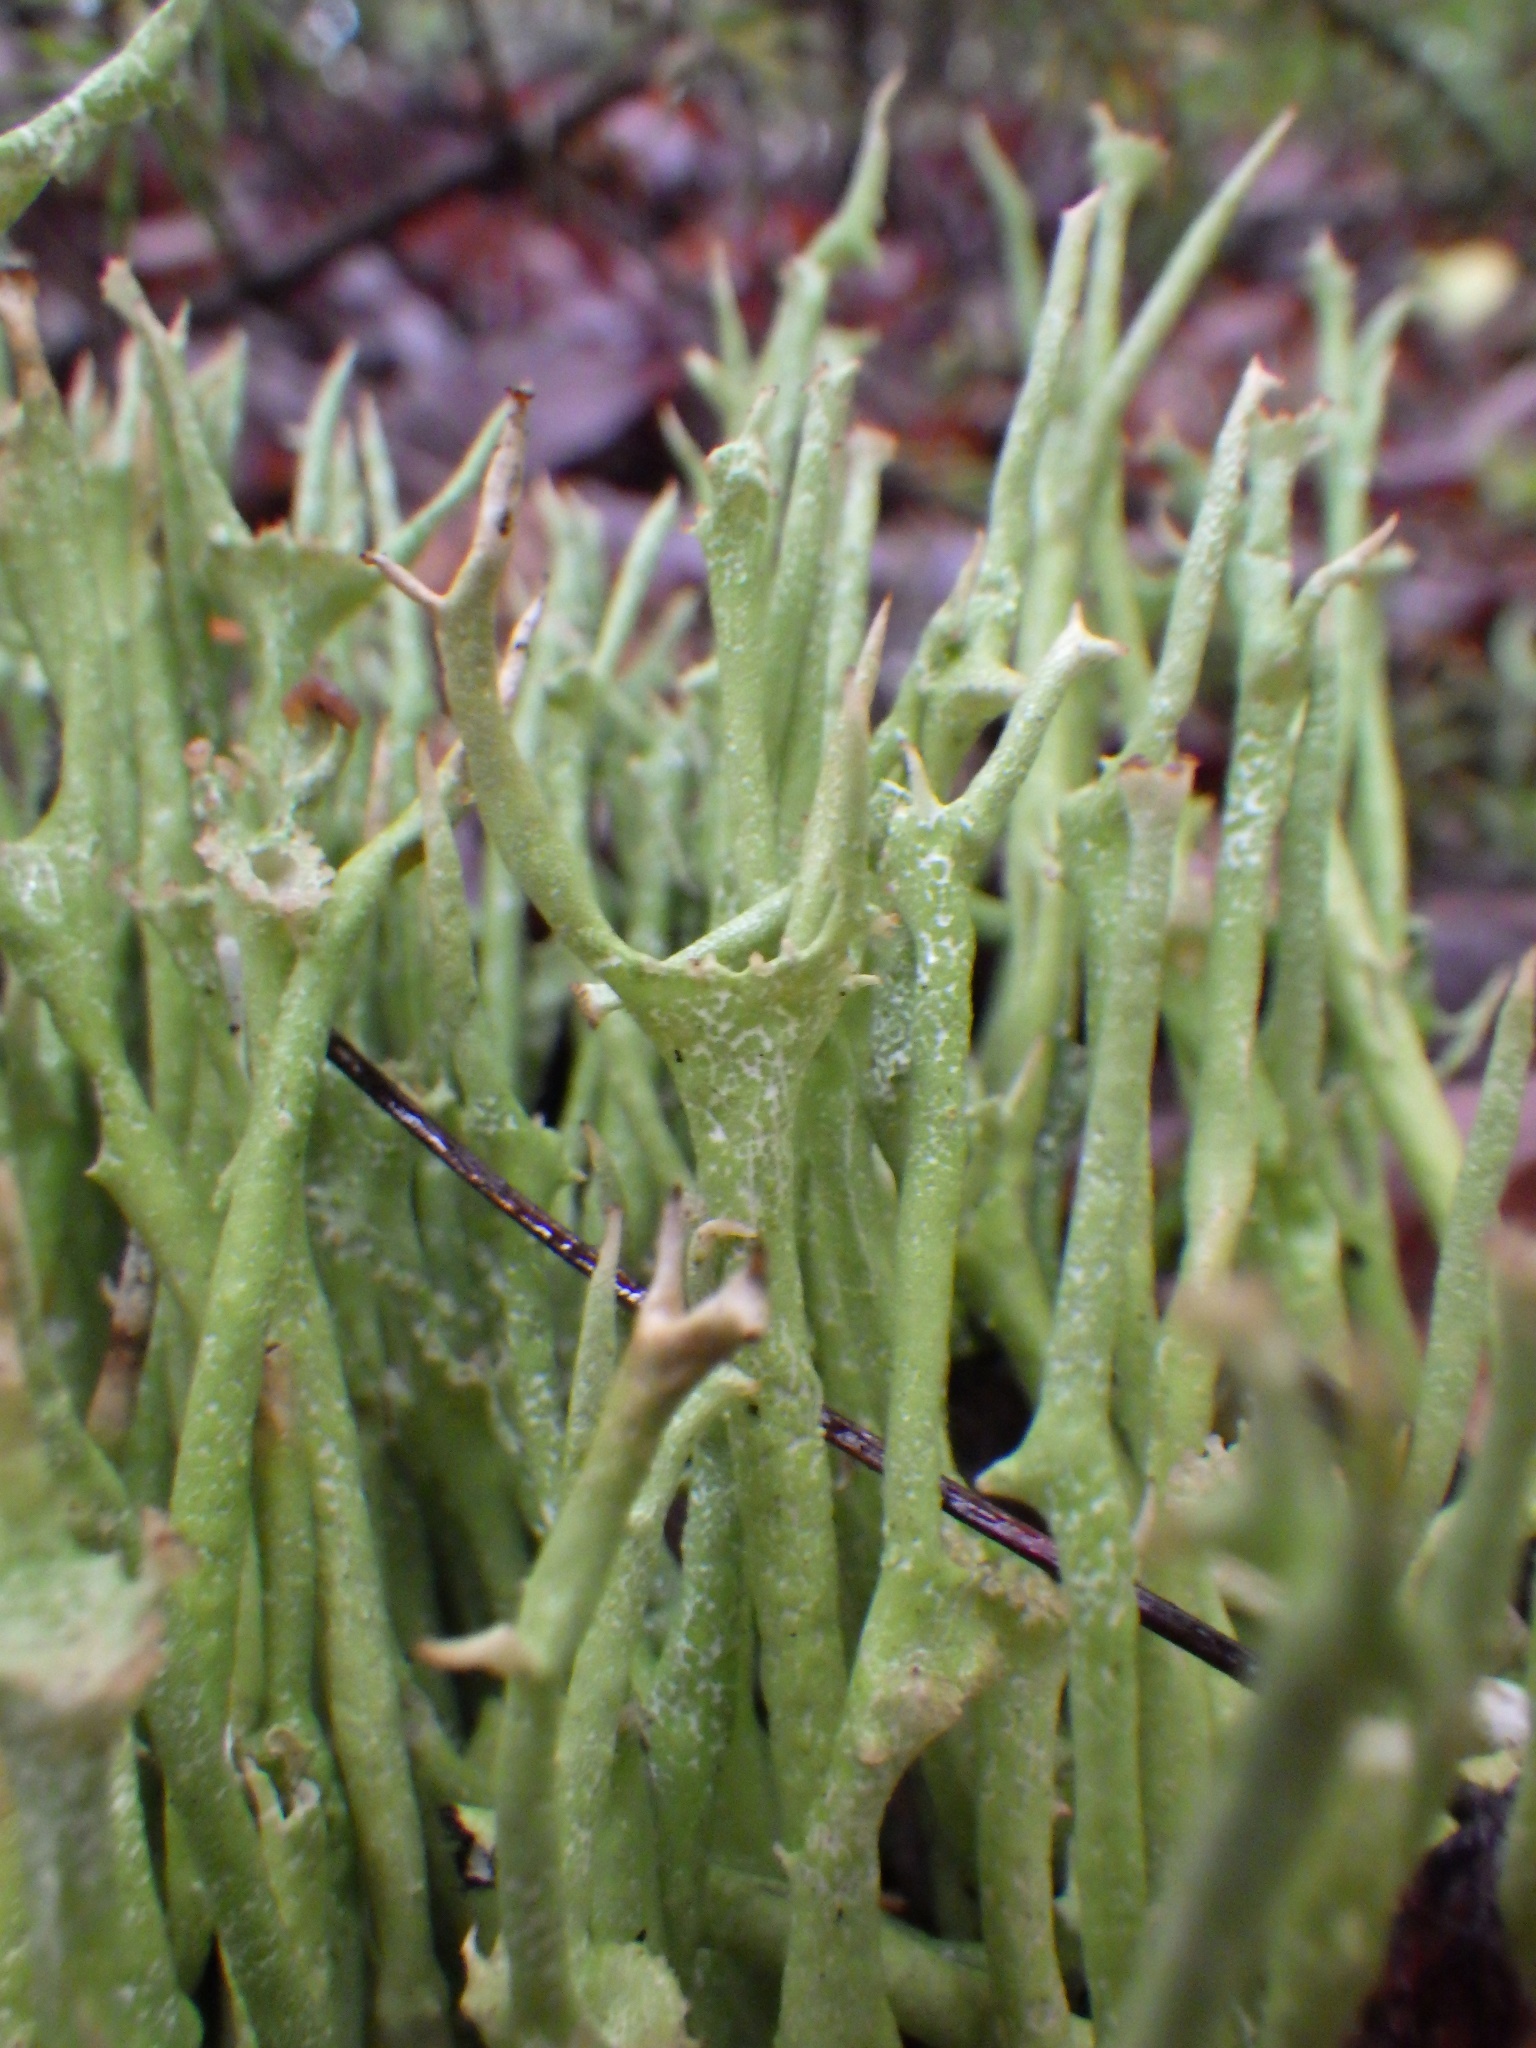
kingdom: Fungi
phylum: Ascomycota
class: Lecanoromycetes
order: Lecanorales
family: Cladoniaceae
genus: Cladonia
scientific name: Cladonia maxima
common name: Giant cladonia lichen
